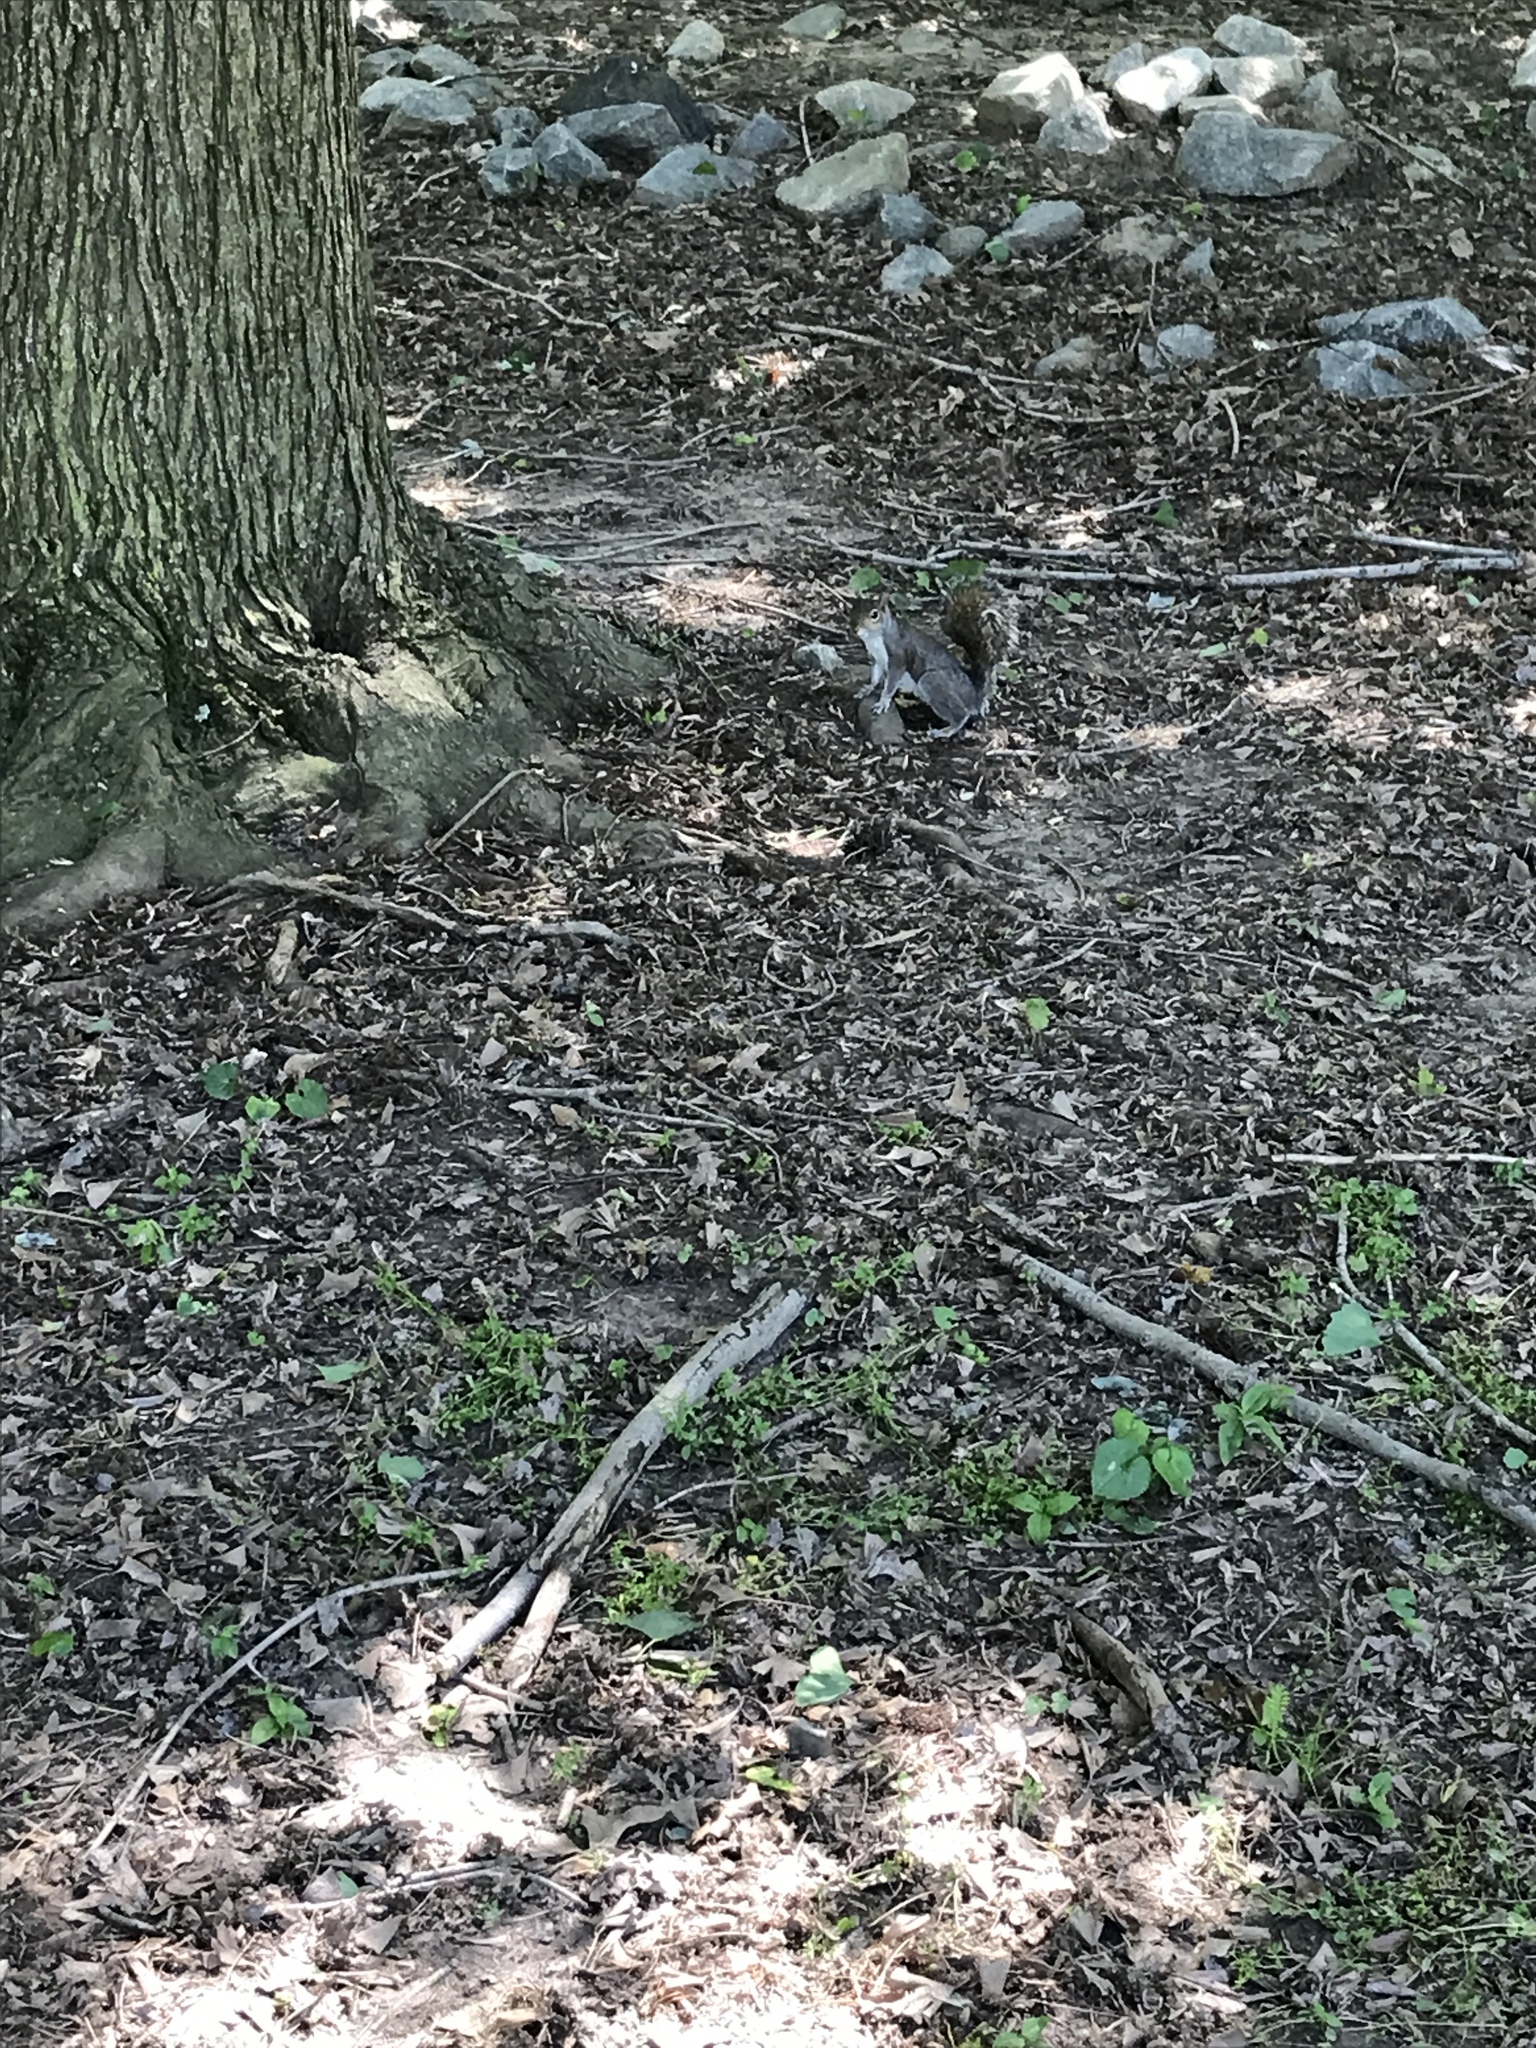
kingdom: Animalia
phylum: Chordata
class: Mammalia
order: Rodentia
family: Sciuridae
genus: Sciurus
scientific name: Sciurus carolinensis
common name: Eastern gray squirrel
